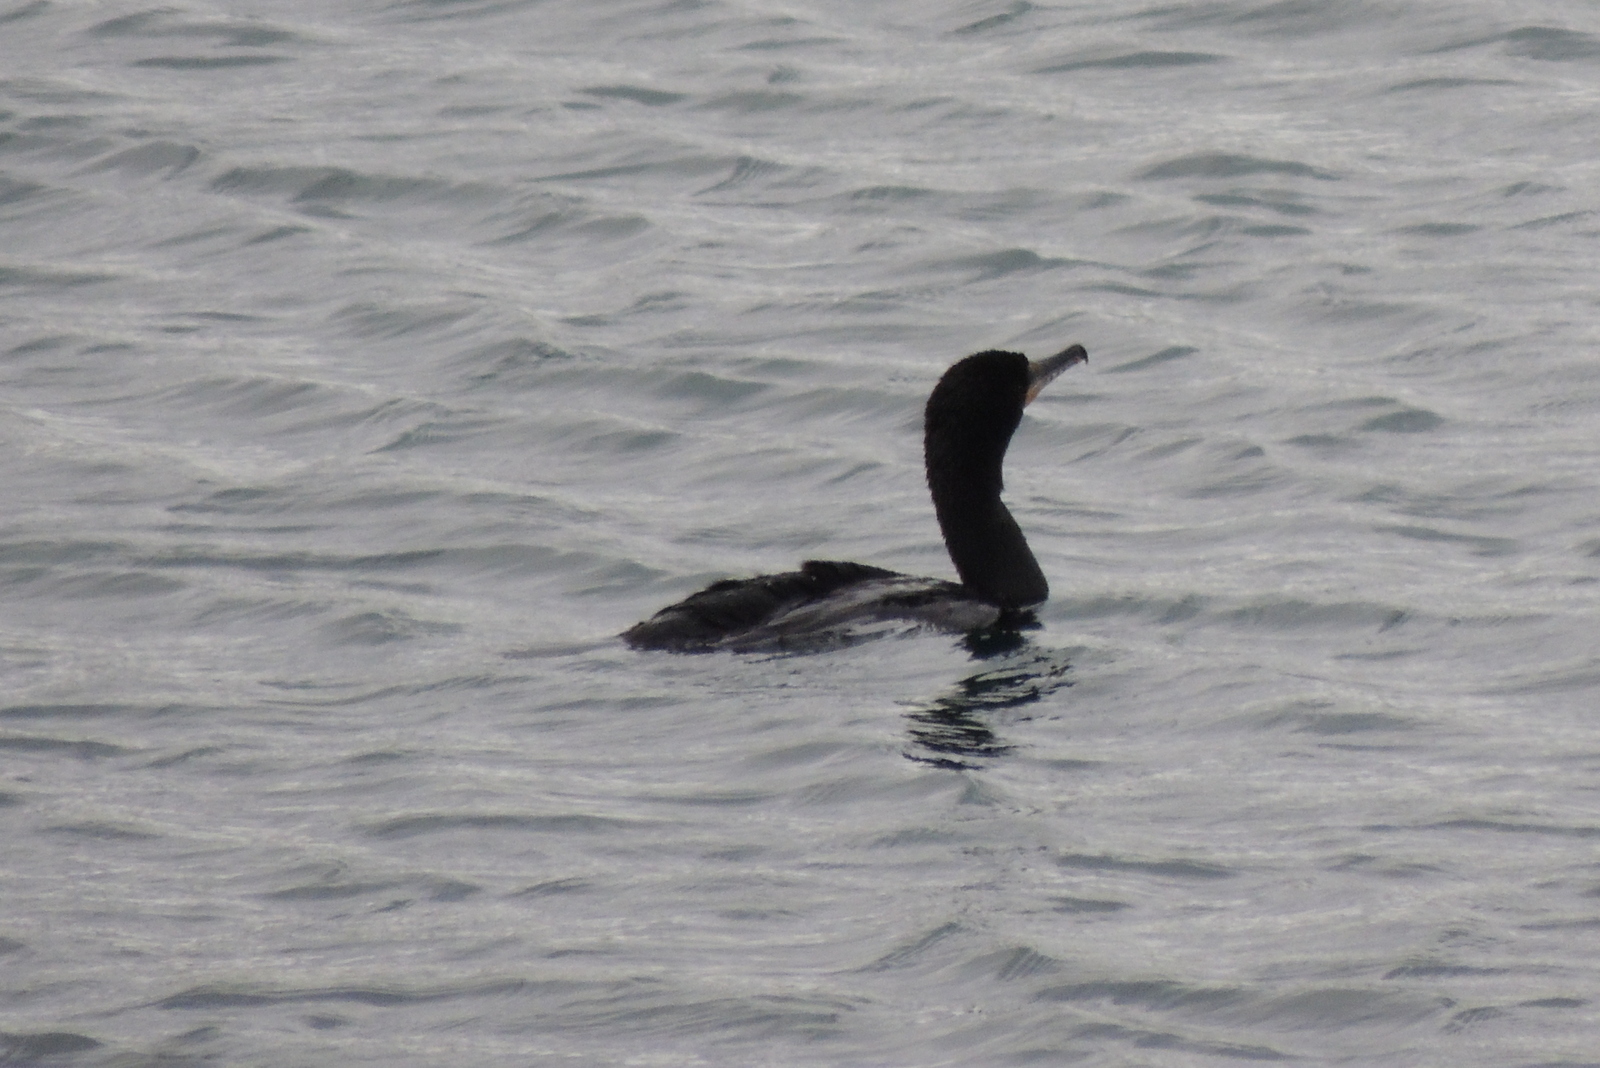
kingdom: Animalia
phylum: Chordata
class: Aves
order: Suliformes
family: Phalacrocoracidae
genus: Phalacrocorax
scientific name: Phalacrocorax auritus
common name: Double-crested cormorant
